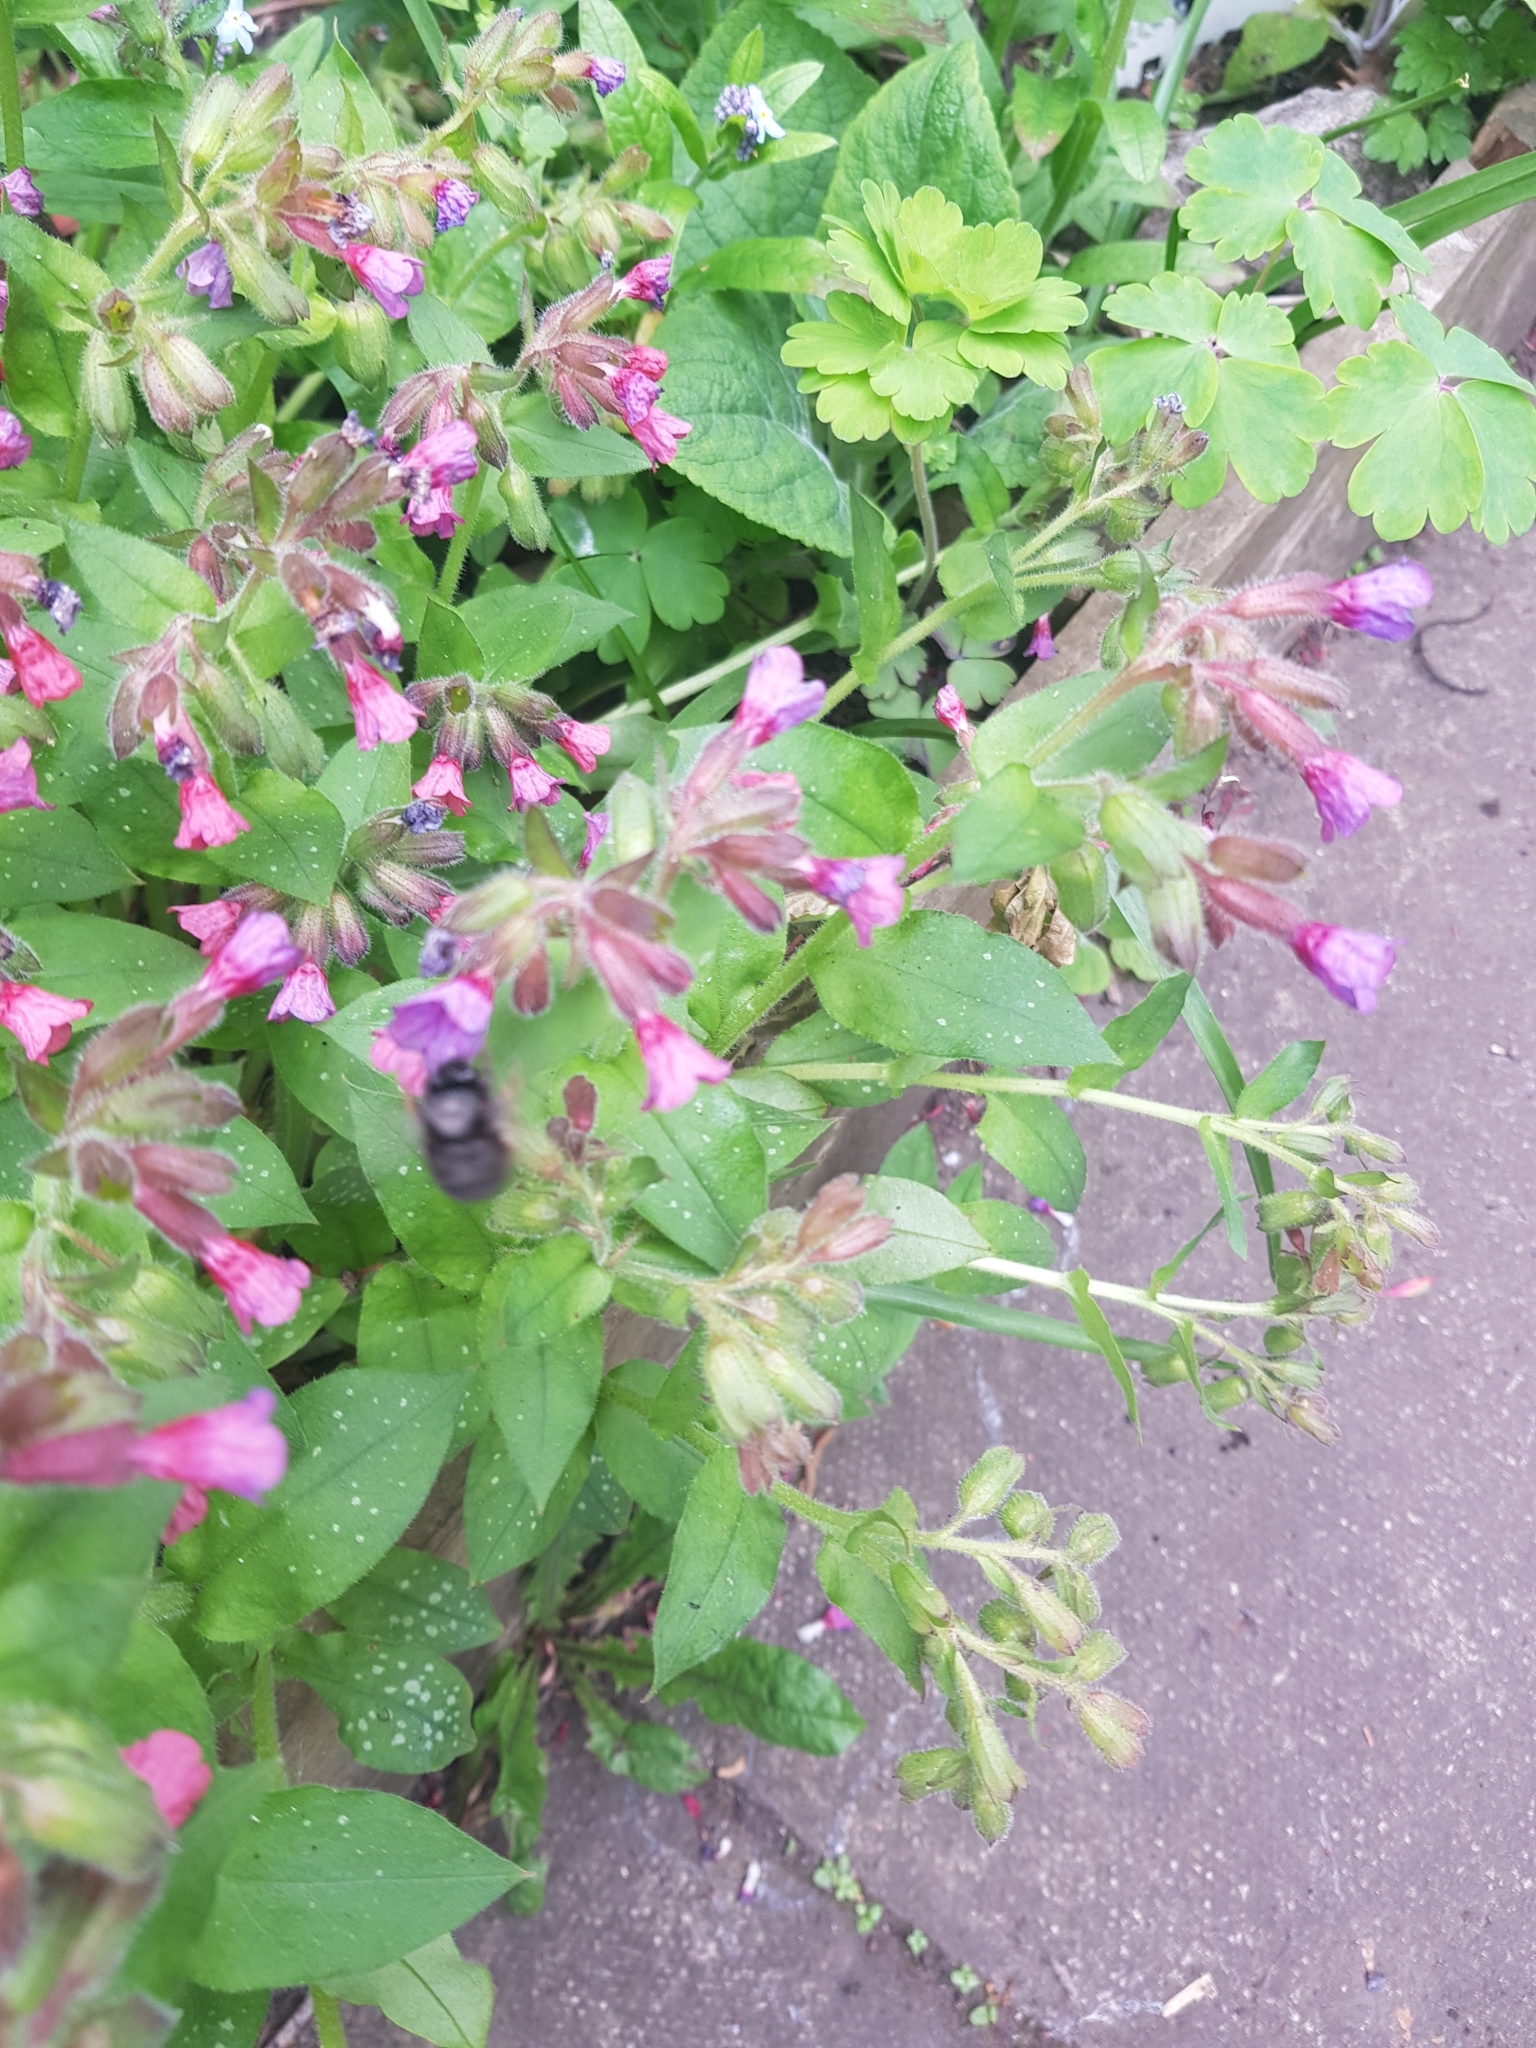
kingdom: Animalia
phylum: Arthropoda
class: Insecta
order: Hymenoptera
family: Apidae
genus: Anthophora
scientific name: Anthophora plumipes
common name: Hairy-footed flower bee
